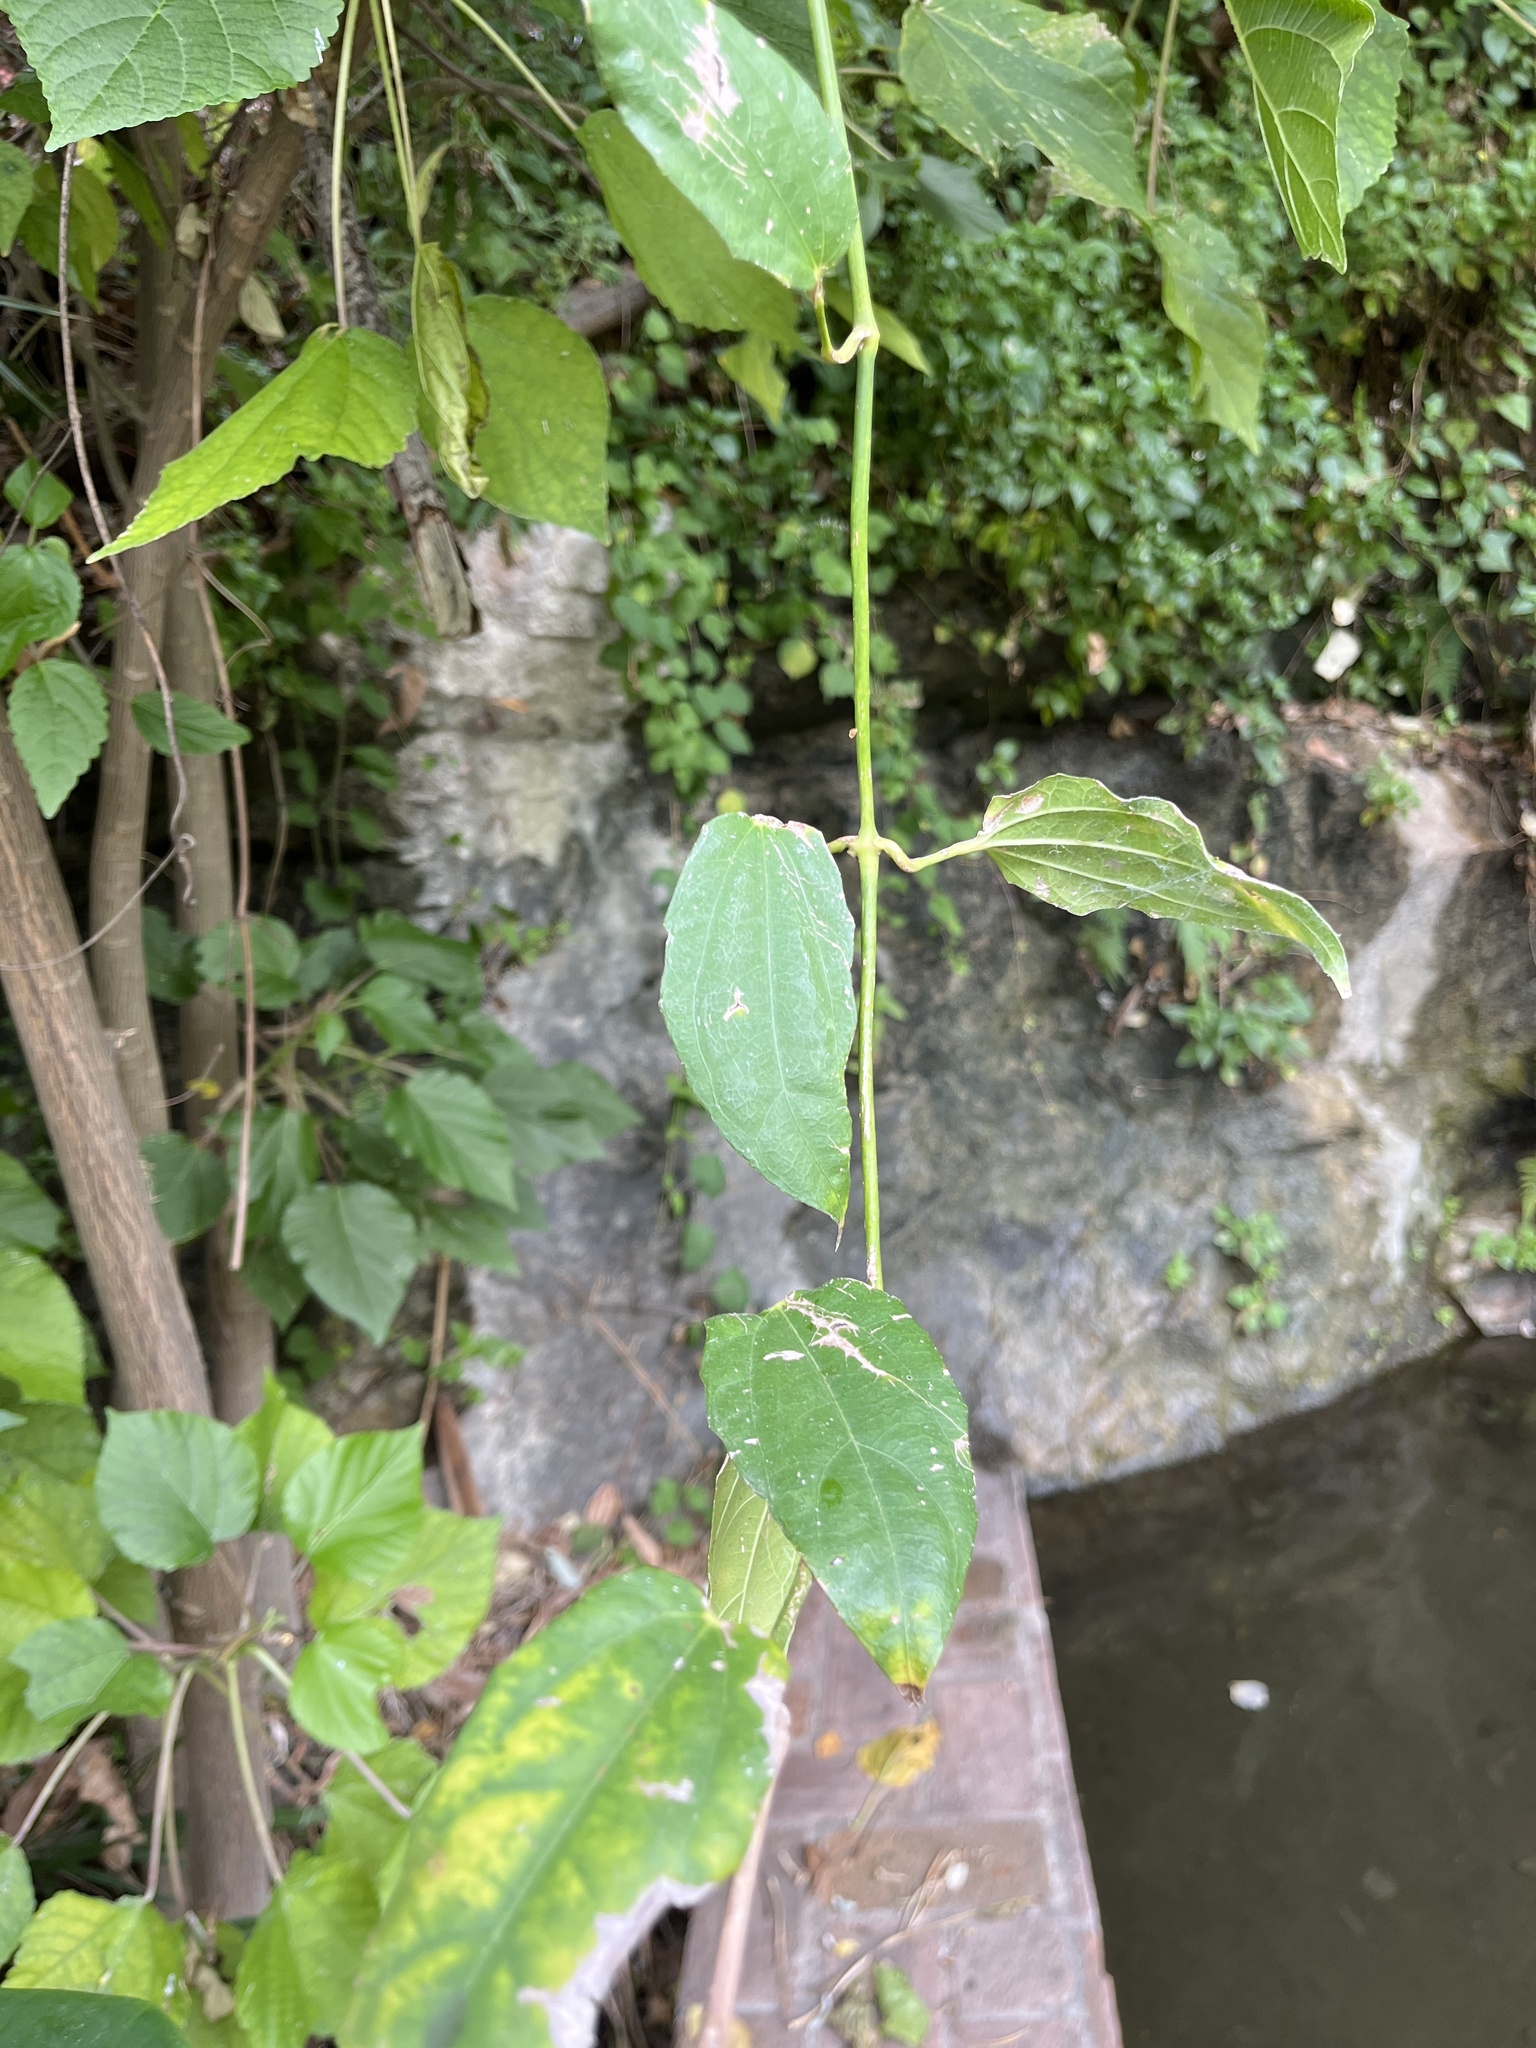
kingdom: Plantae
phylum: Tracheophyta
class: Magnoliopsida
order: Lamiales
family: Acanthaceae
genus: Thunbergia
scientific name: Thunbergia laurifolia
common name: Laurel-leaved thunbergia
